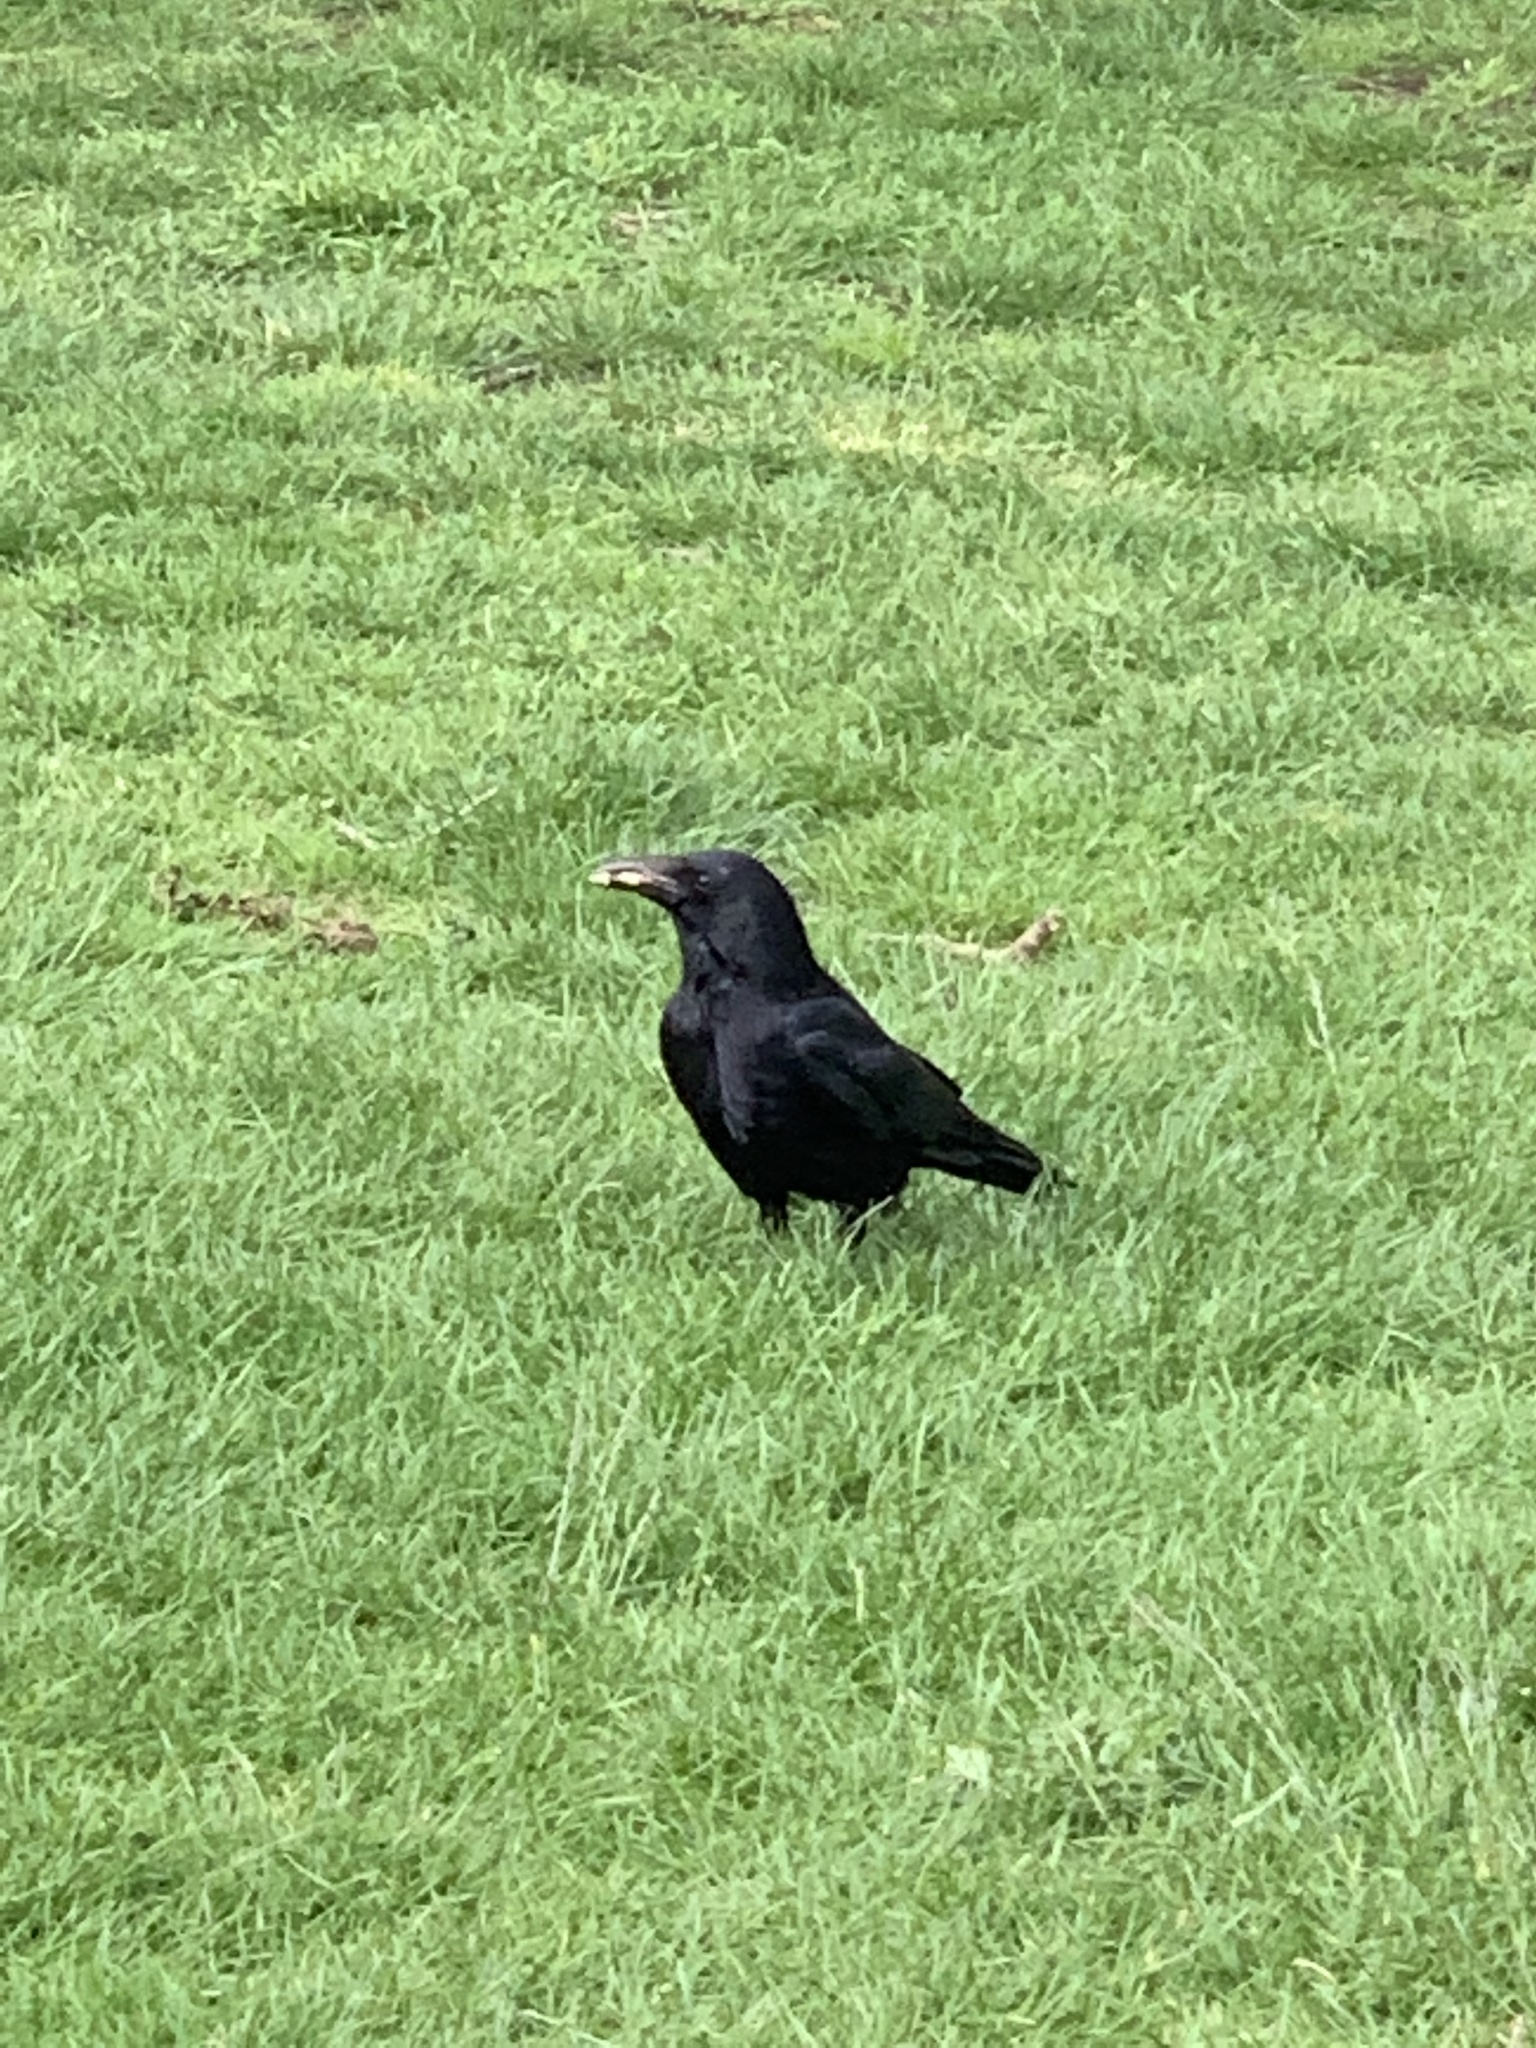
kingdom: Animalia
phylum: Chordata
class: Aves
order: Passeriformes
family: Corvidae
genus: Corvus
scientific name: Corvus corone
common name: Carrion crow
